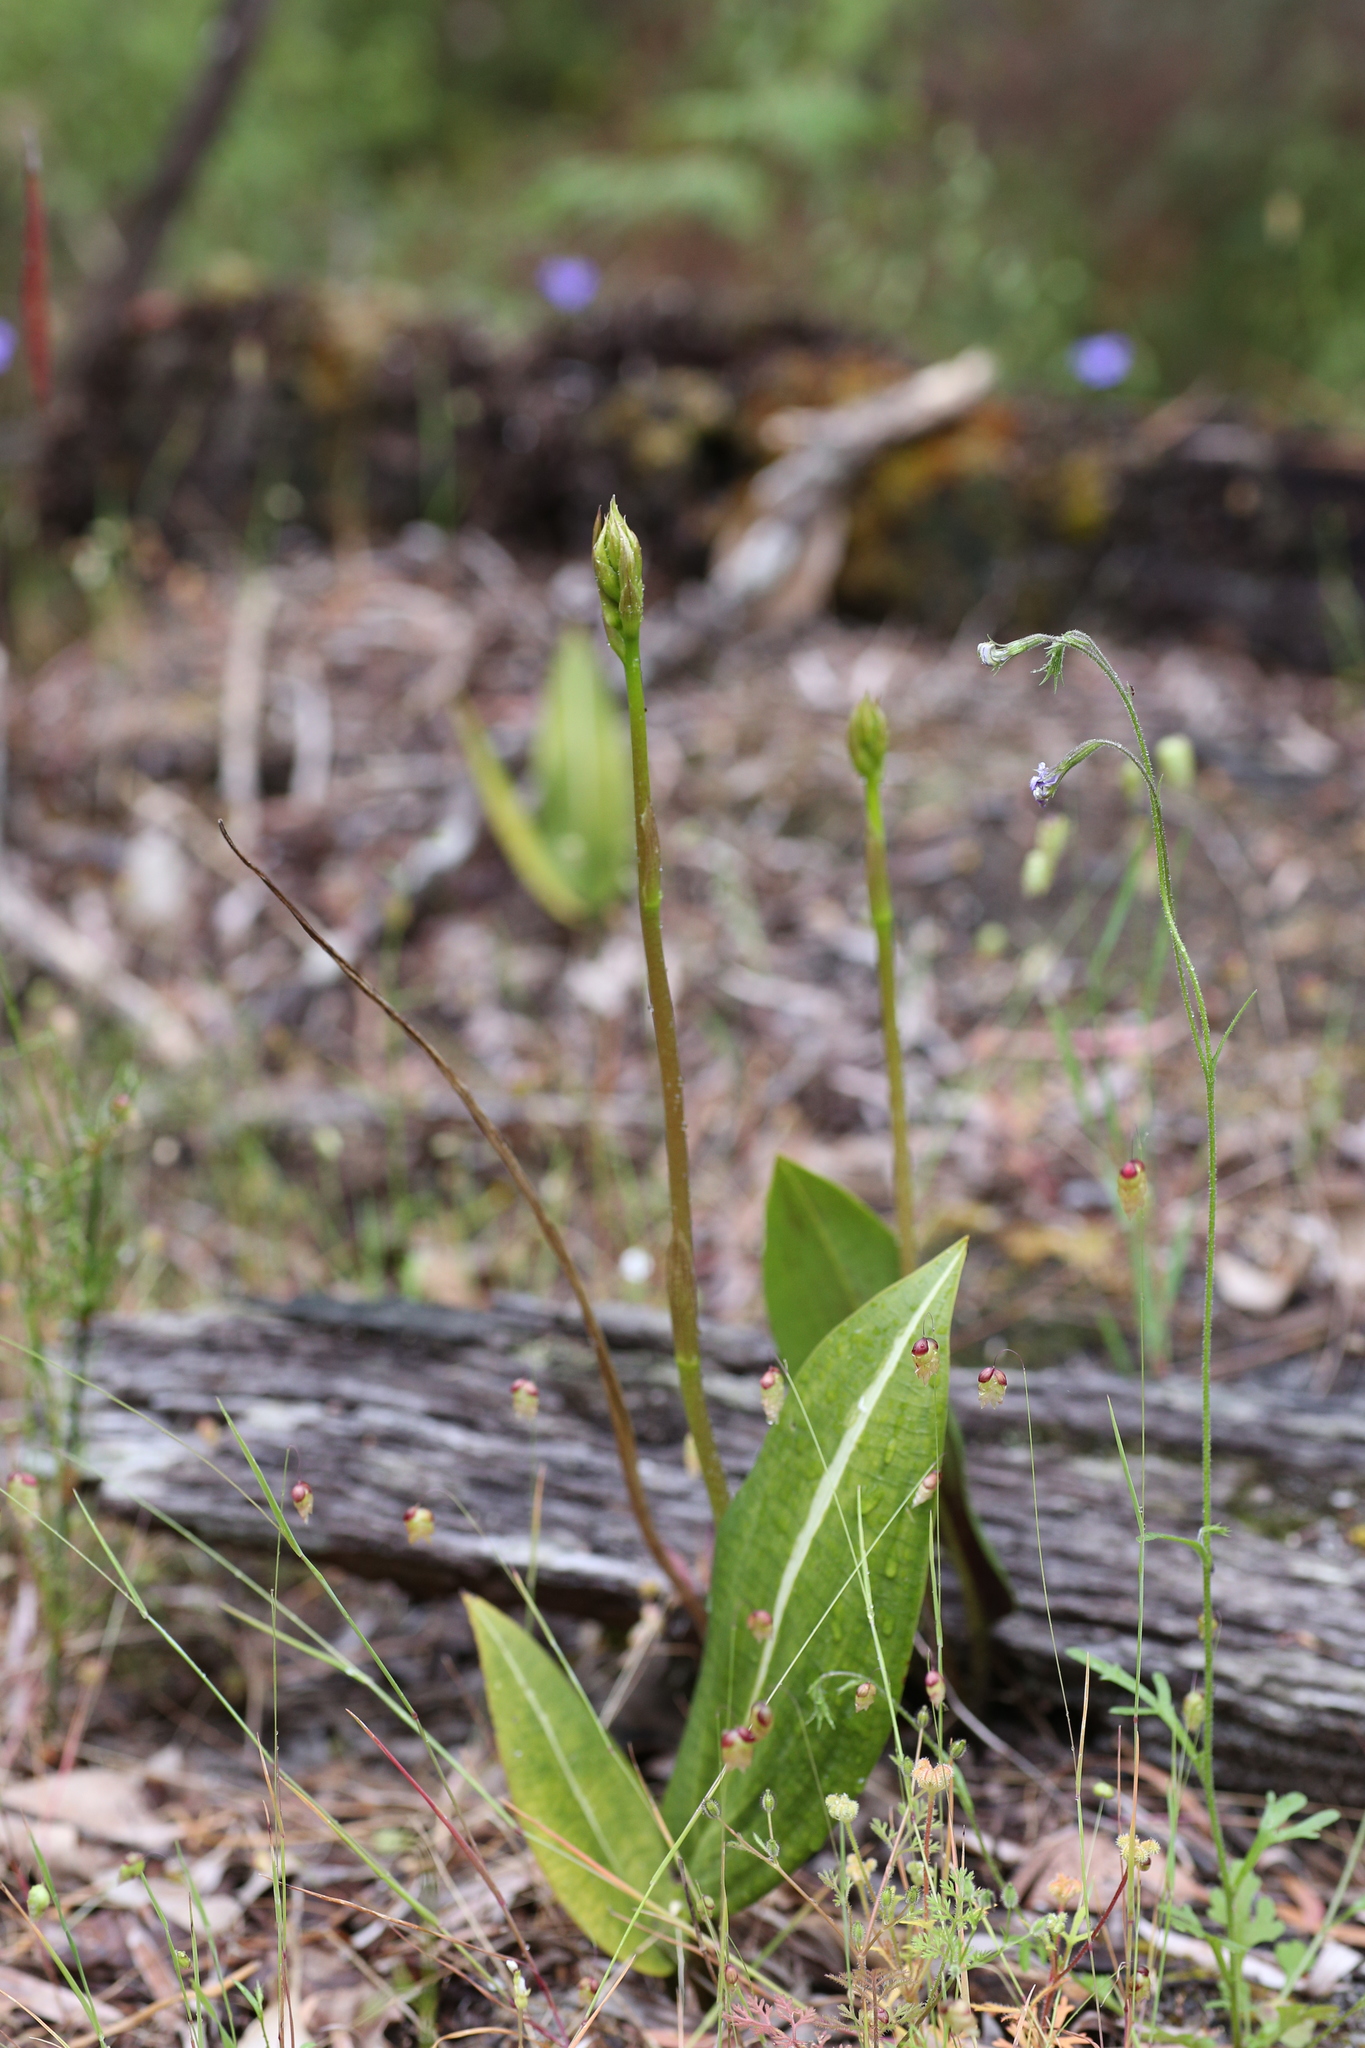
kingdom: Plantae
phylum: Tracheophyta
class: Liliopsida
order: Asparagales
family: Orchidaceae
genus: Cryptostylis
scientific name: Cryptostylis ovata
